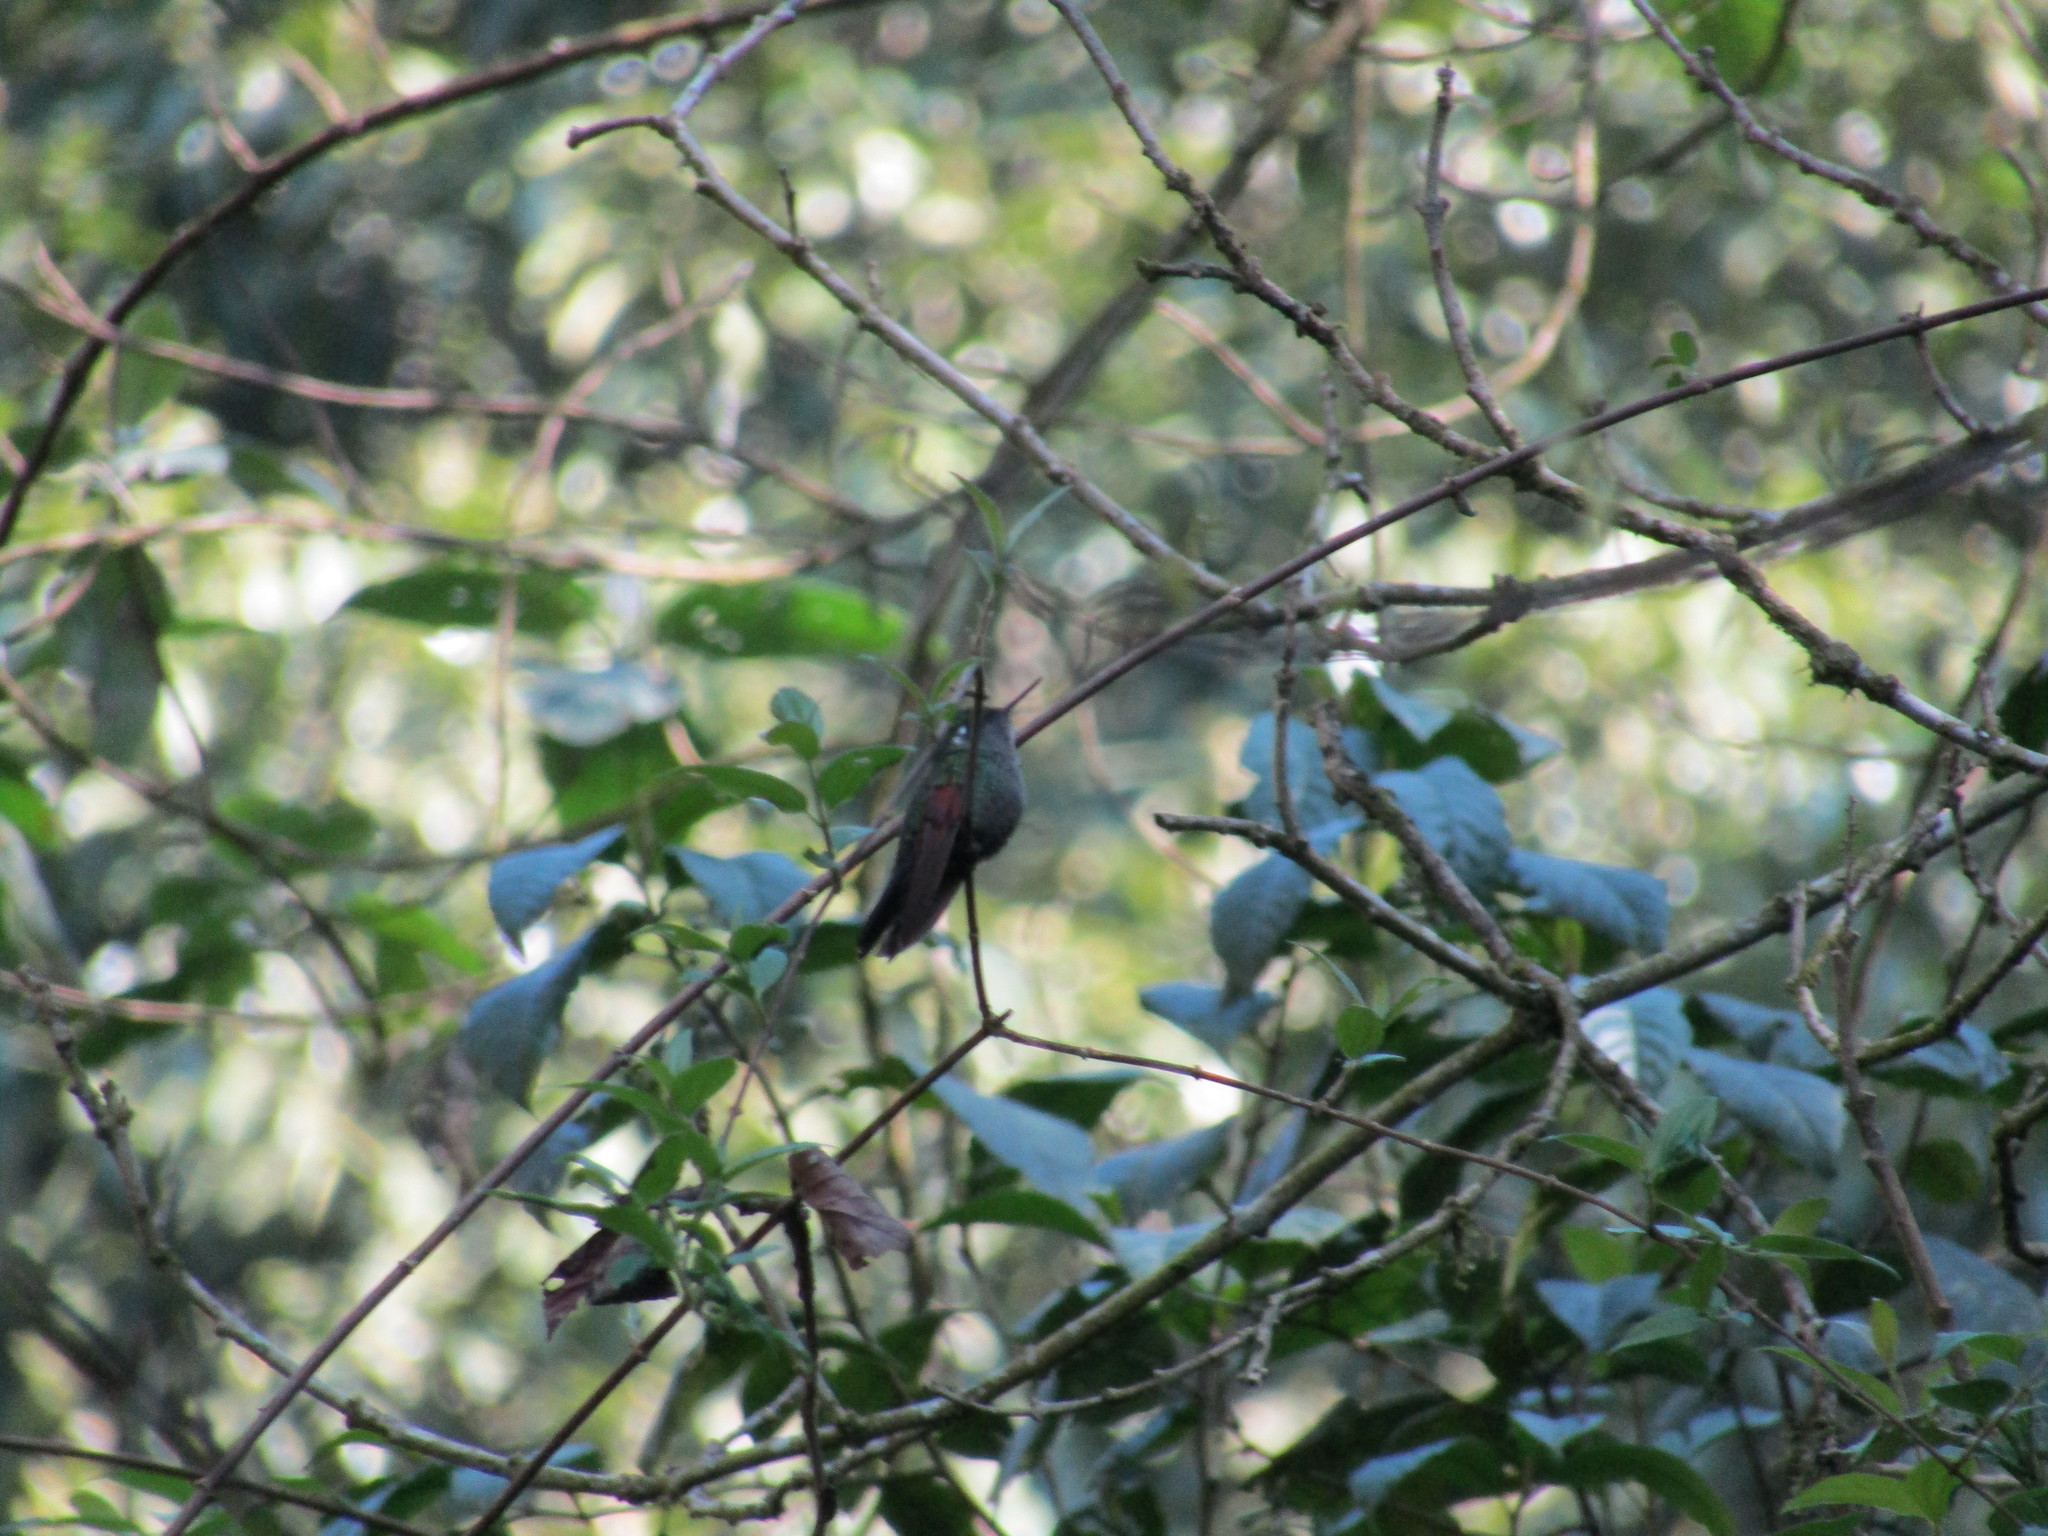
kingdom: Animalia
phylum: Chordata
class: Aves
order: Apodiformes
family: Trochilidae
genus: Lamprolaima
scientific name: Lamprolaima rhami
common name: Garnet-throated hummingbird
